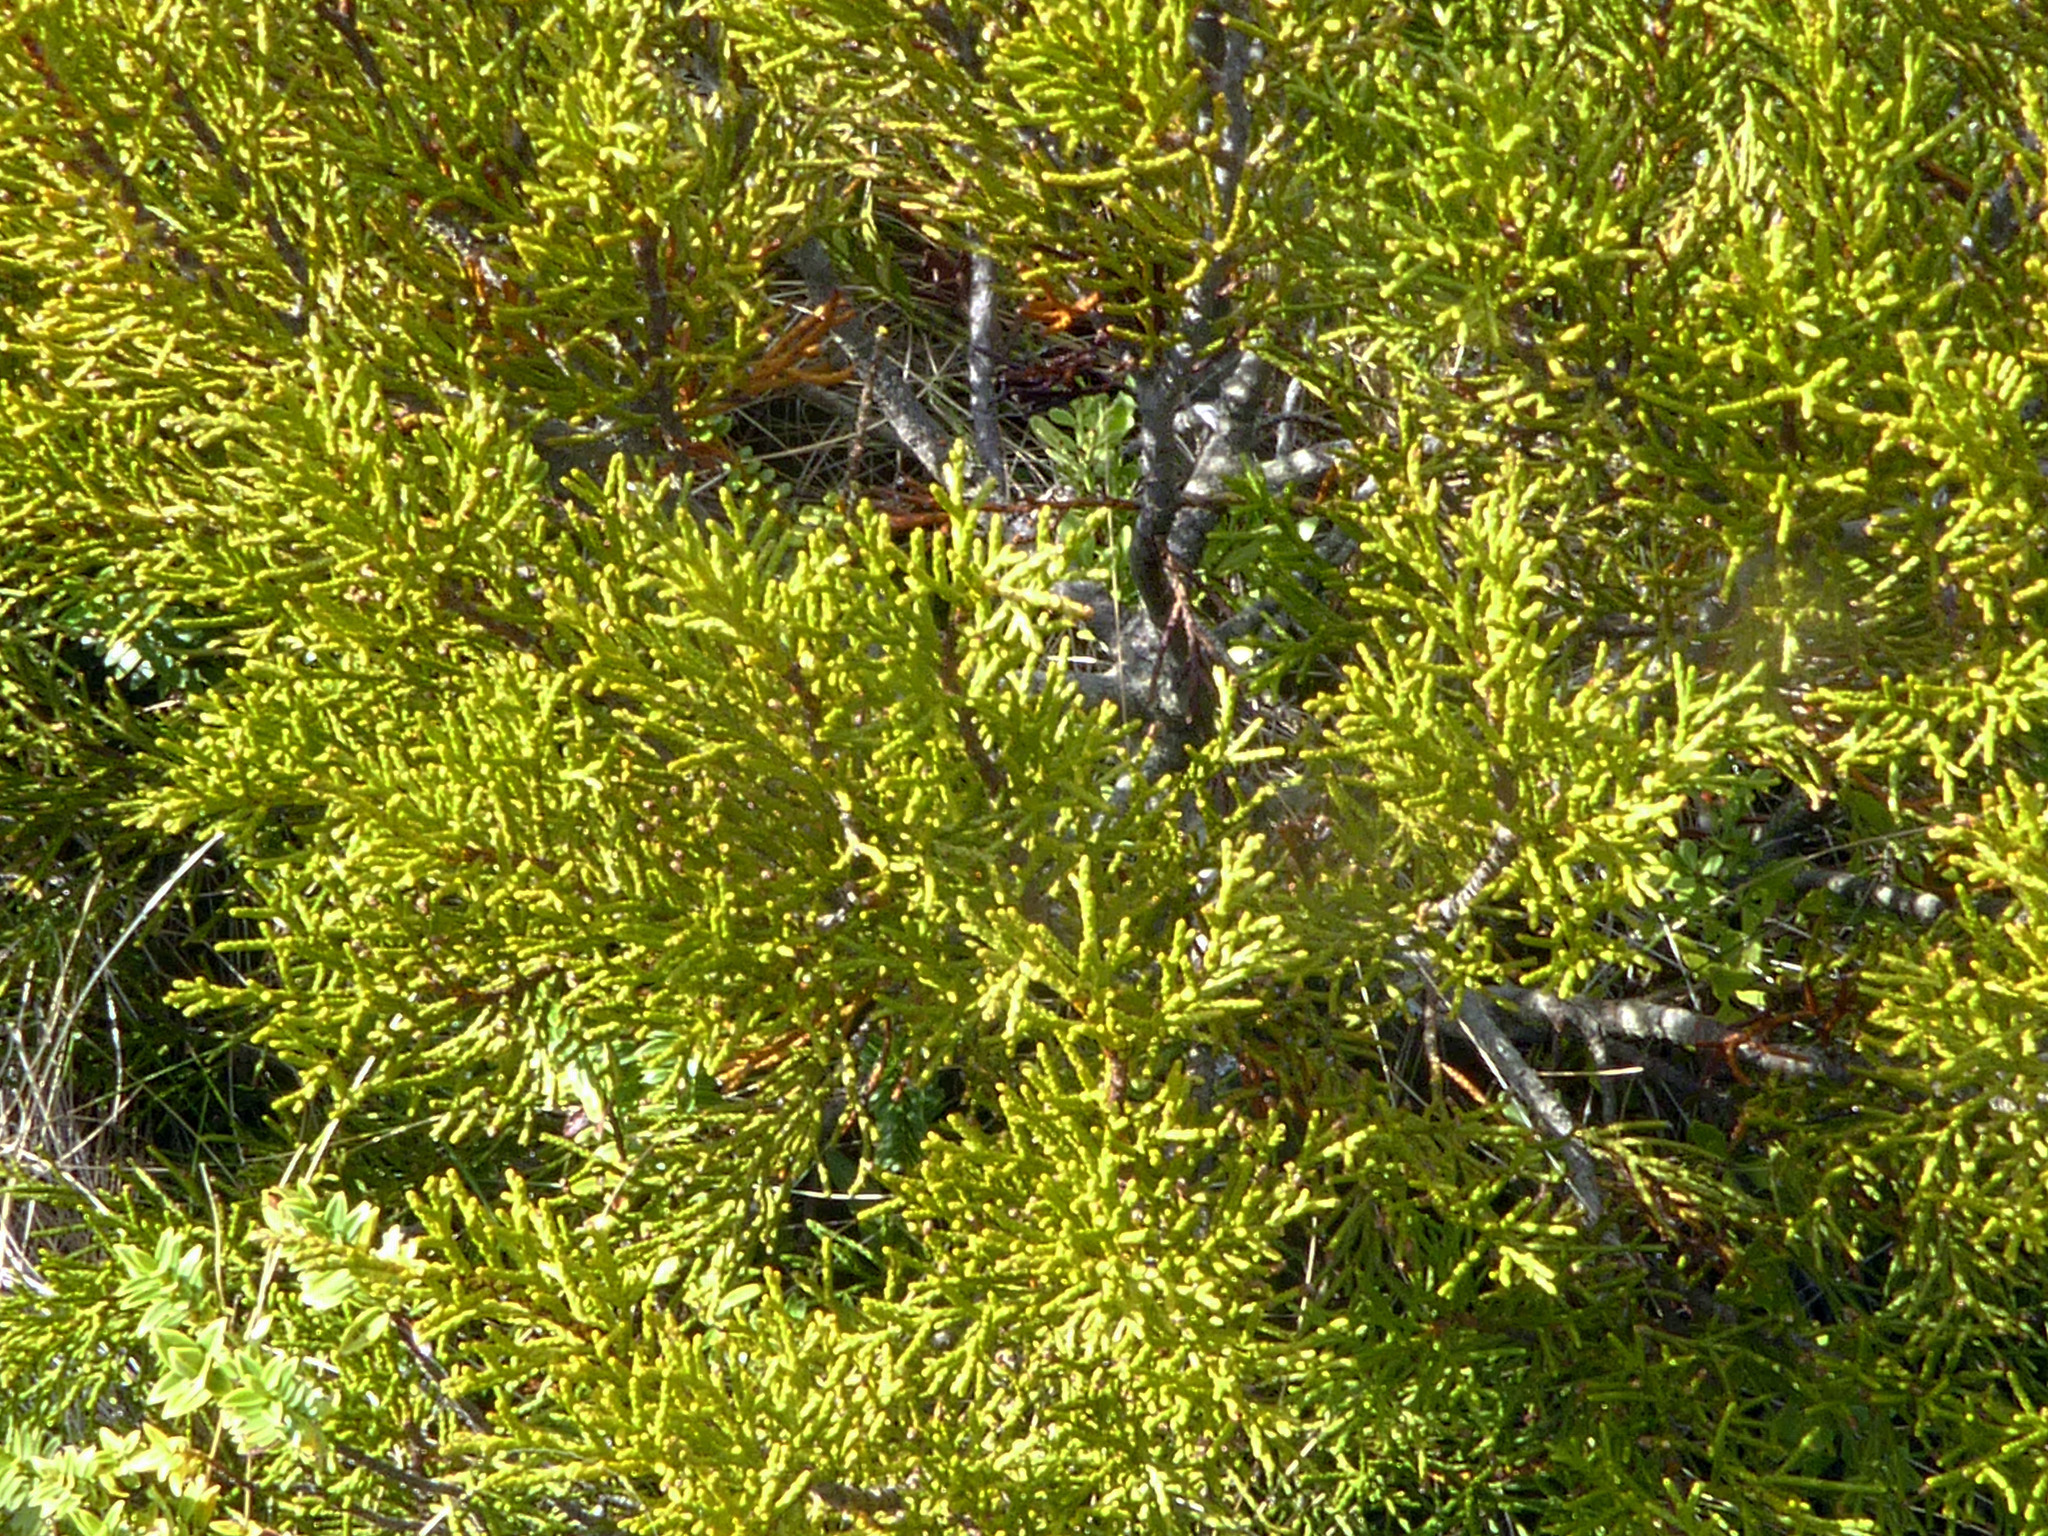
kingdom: Plantae
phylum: Tracheophyta
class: Pinopsida
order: Pinales
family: Podocarpaceae
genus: Halocarpus
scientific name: Halocarpus bidwillii
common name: Bog pine
